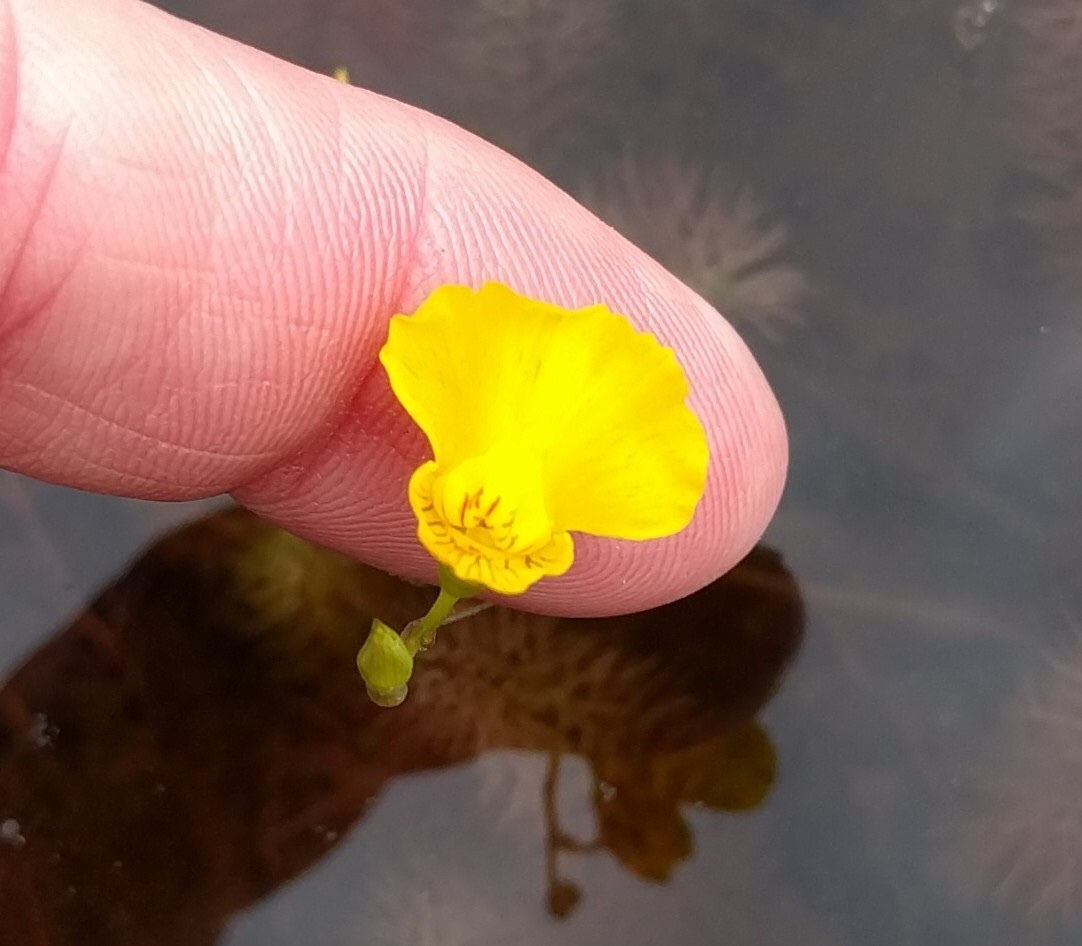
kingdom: Plantae
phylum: Tracheophyta
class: Magnoliopsida
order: Lamiales
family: Lentibulariaceae
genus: Utricularia
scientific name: Utricularia intermedia
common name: Intermediate bladderwort
